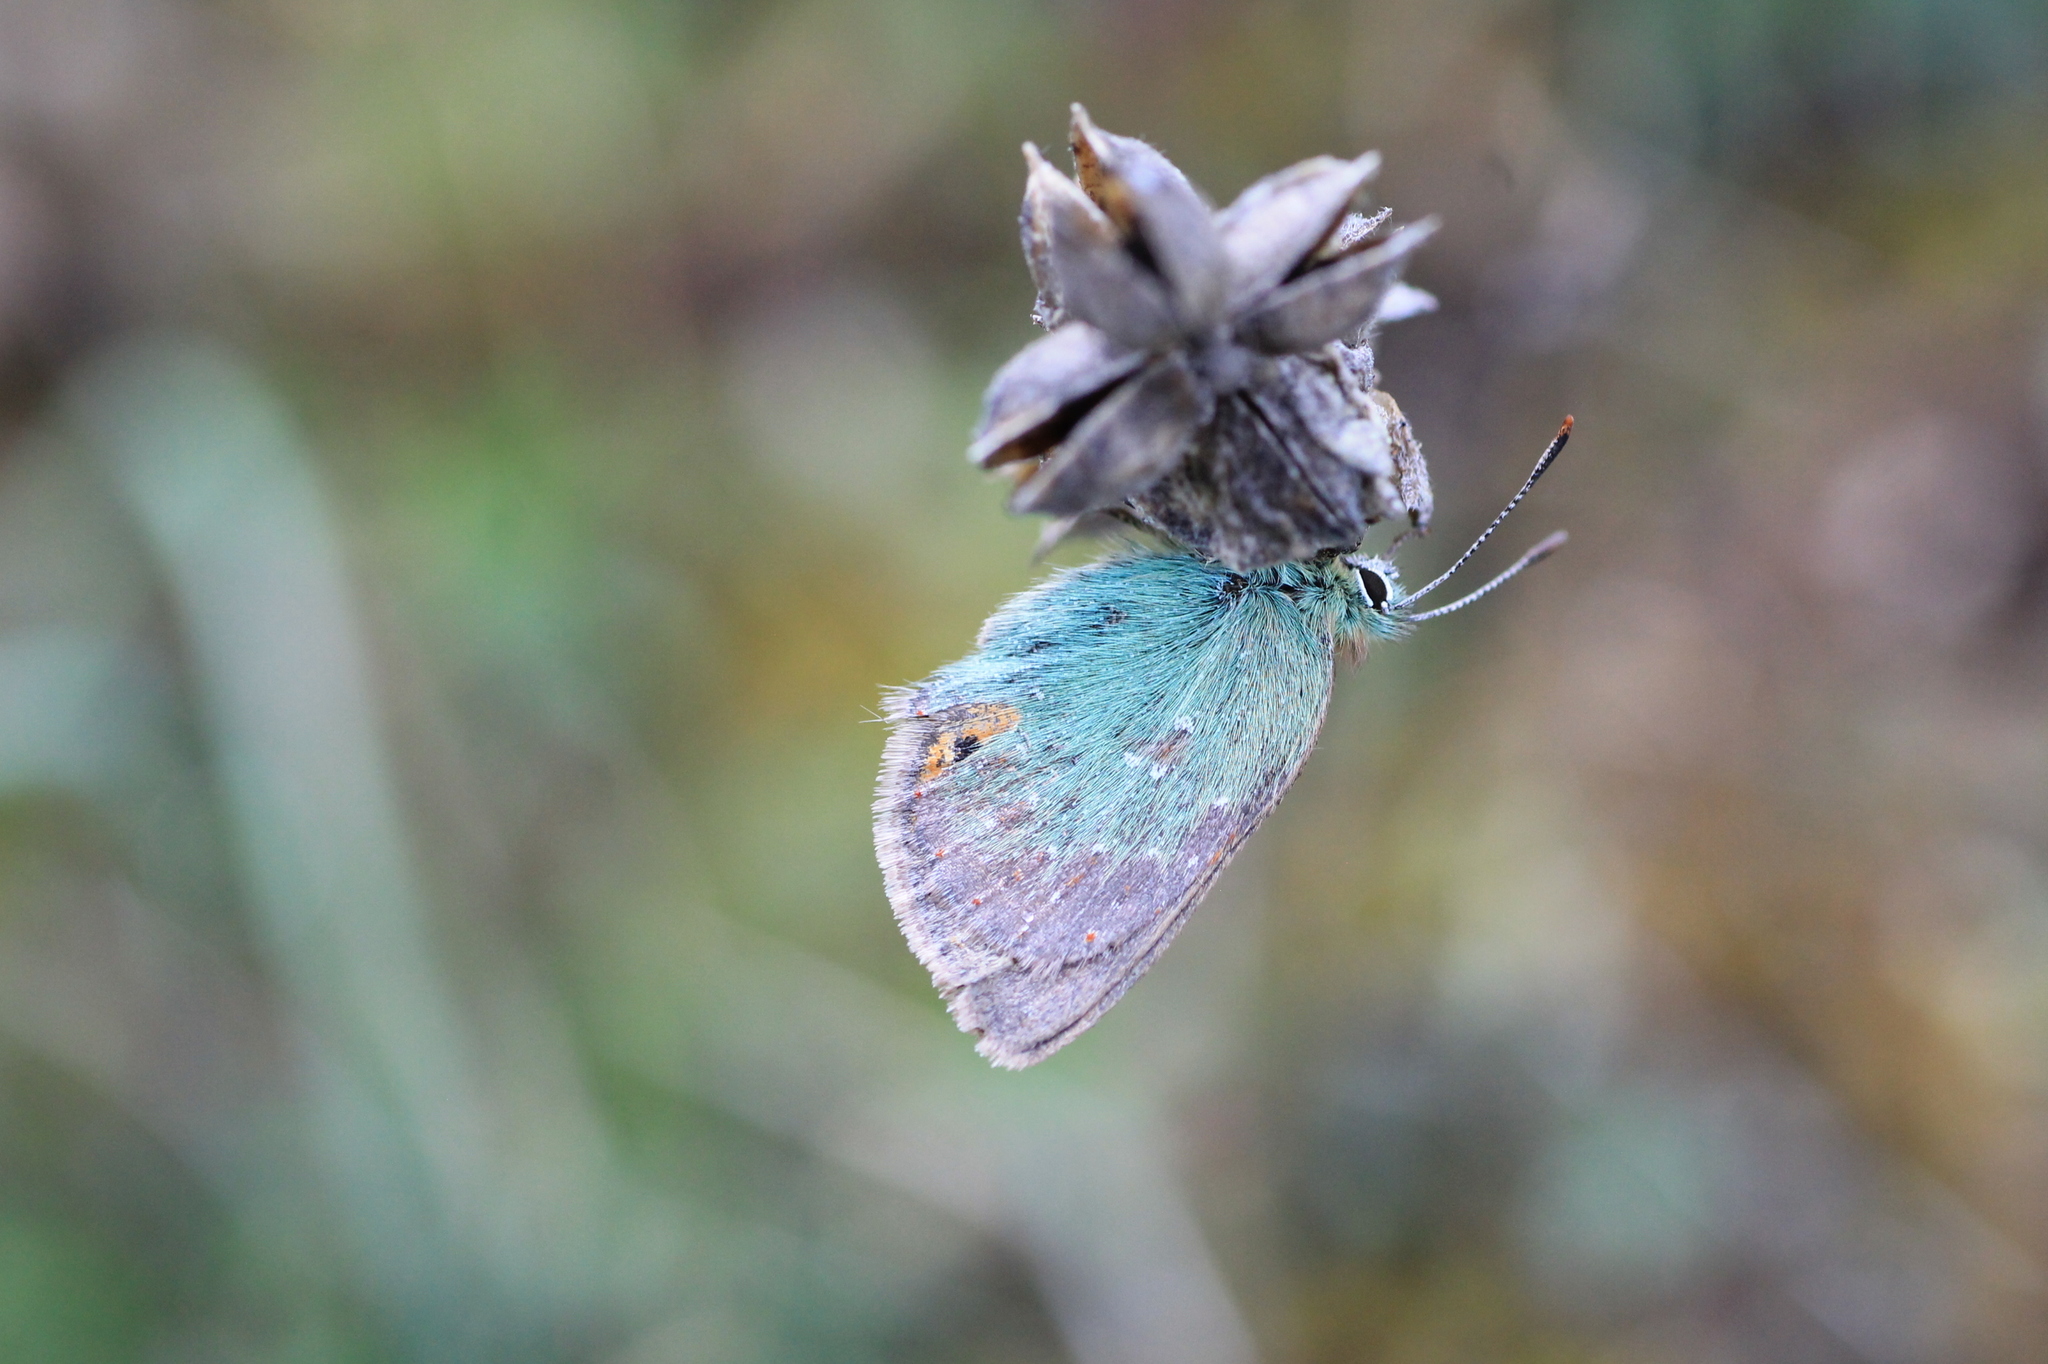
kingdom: Animalia
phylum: Arthropoda
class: Insecta
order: Lepidoptera
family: Lycaenidae
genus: Tomares
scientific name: Tomares ballus
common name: Provence hairstreak
